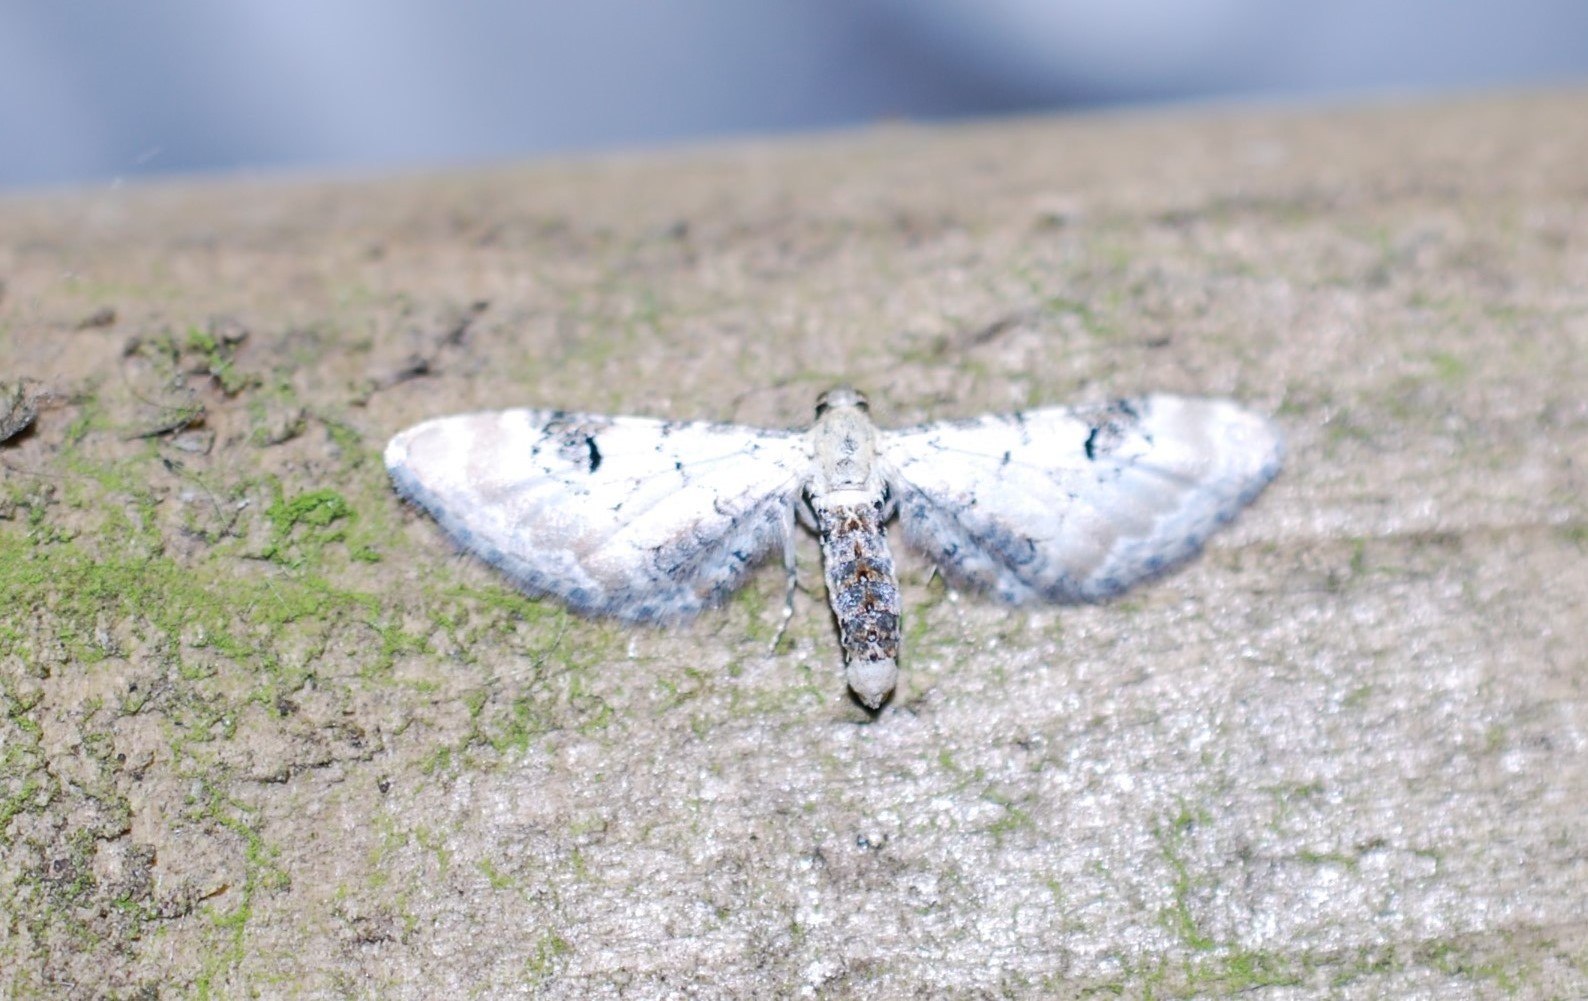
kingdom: Animalia
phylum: Arthropoda
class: Insecta
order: Lepidoptera
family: Geometridae
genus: Eupithecia
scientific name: Eupithecia centaureata
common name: Lime-speck pug
